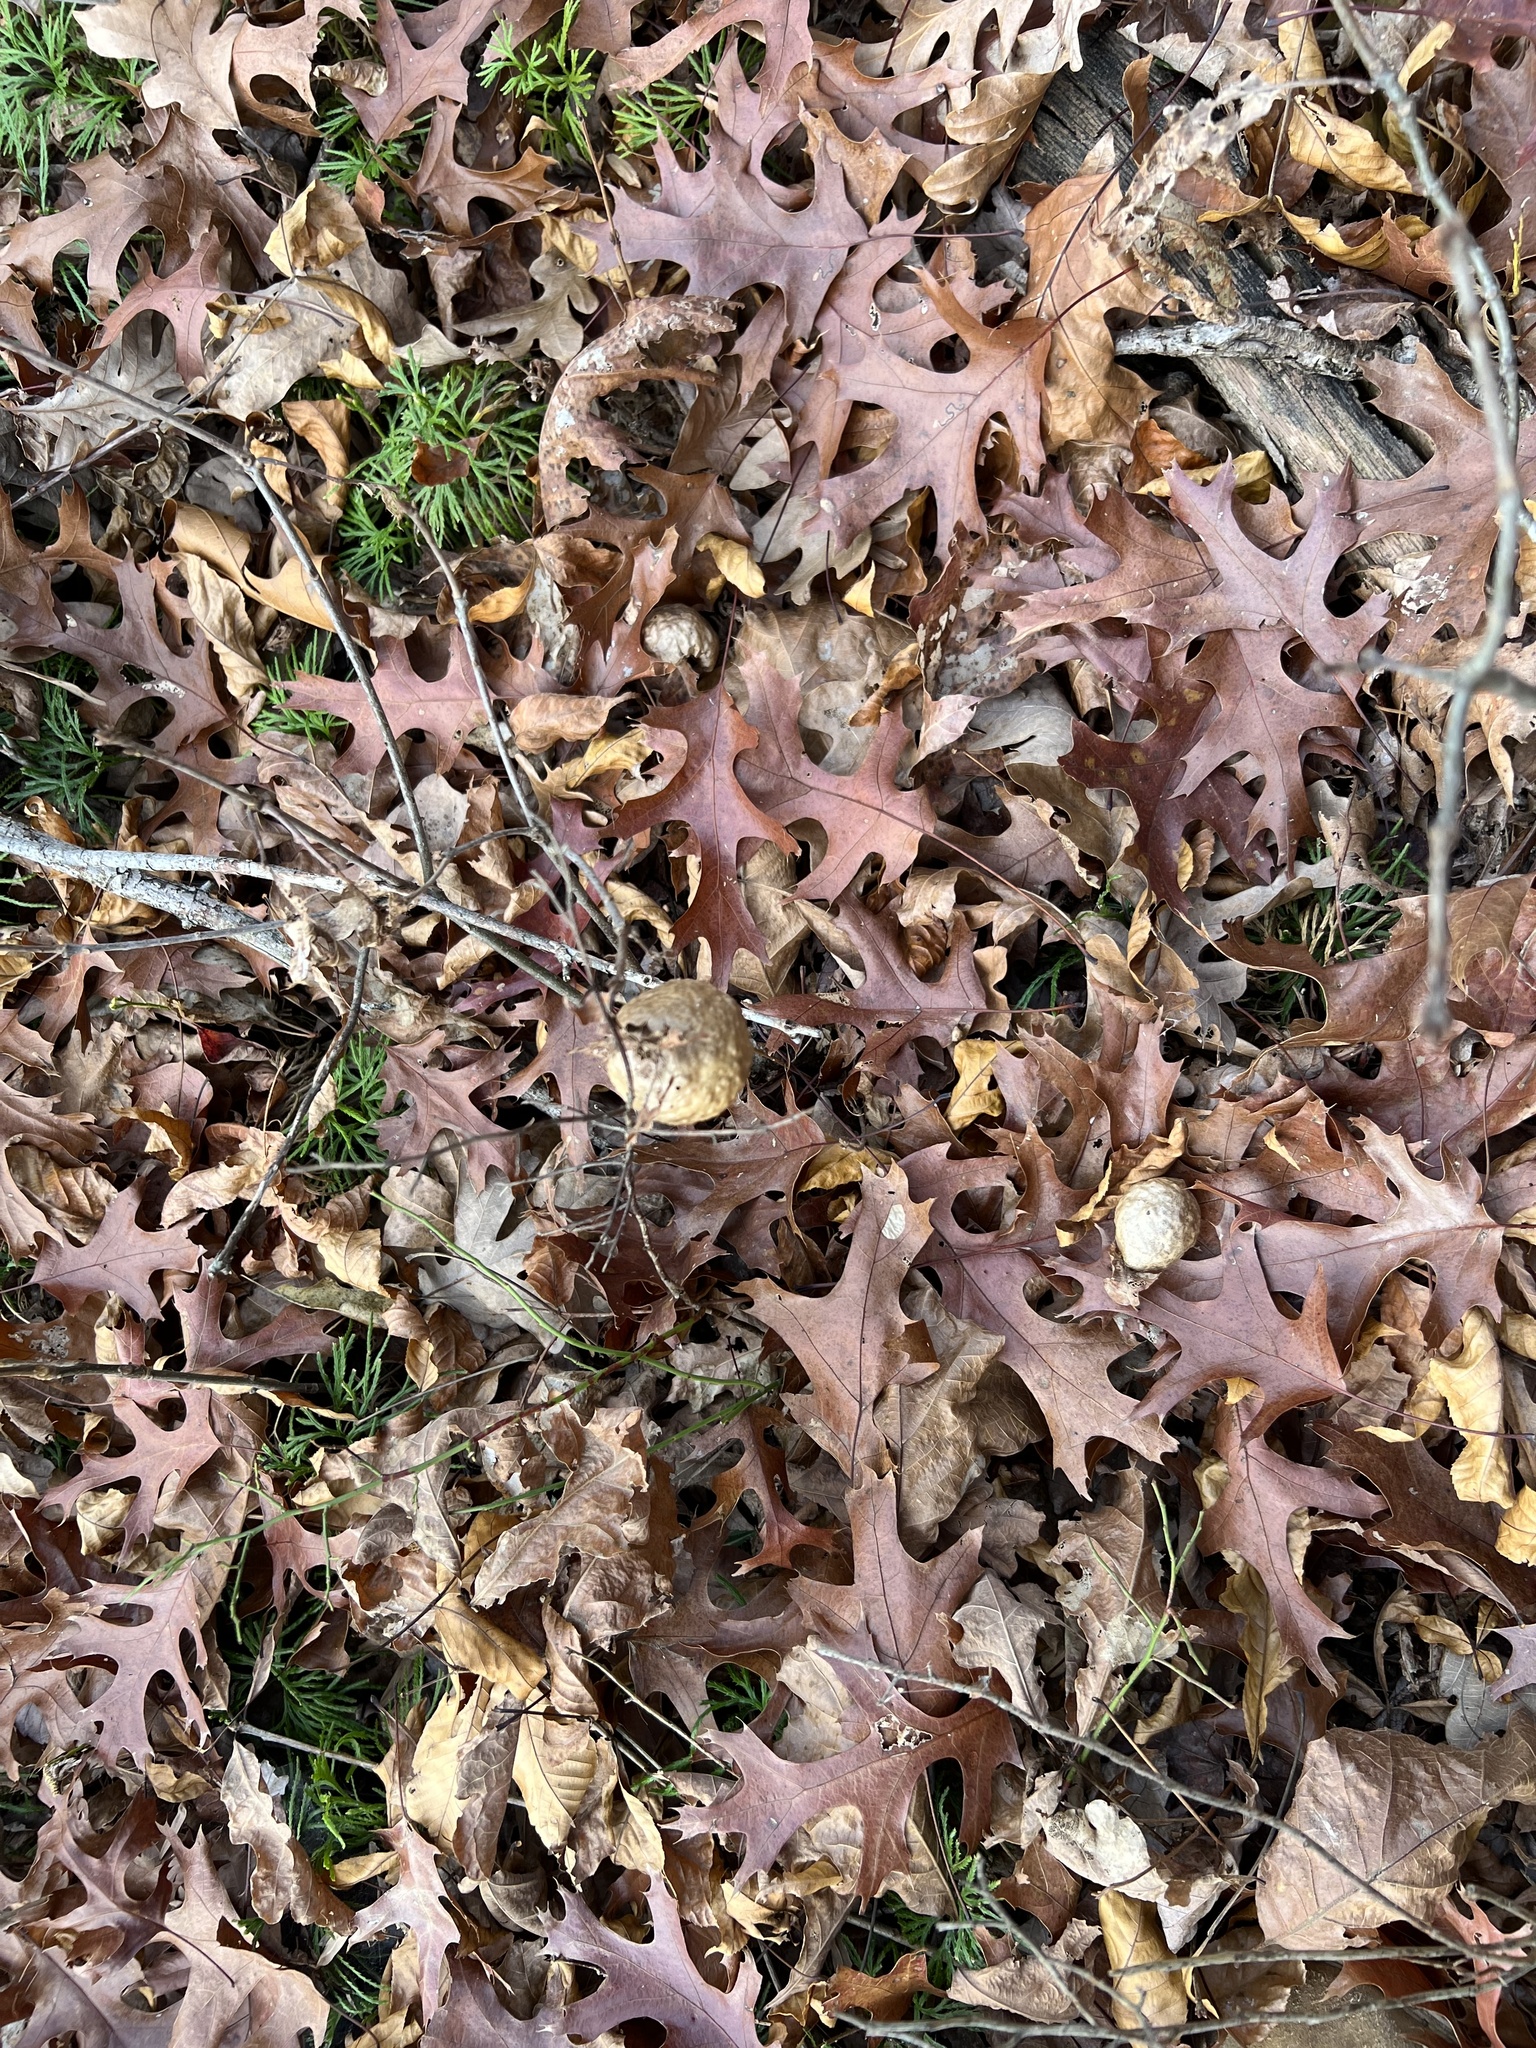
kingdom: Animalia
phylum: Arthropoda
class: Insecta
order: Hymenoptera
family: Cynipidae
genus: Amphibolips
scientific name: Amphibolips
